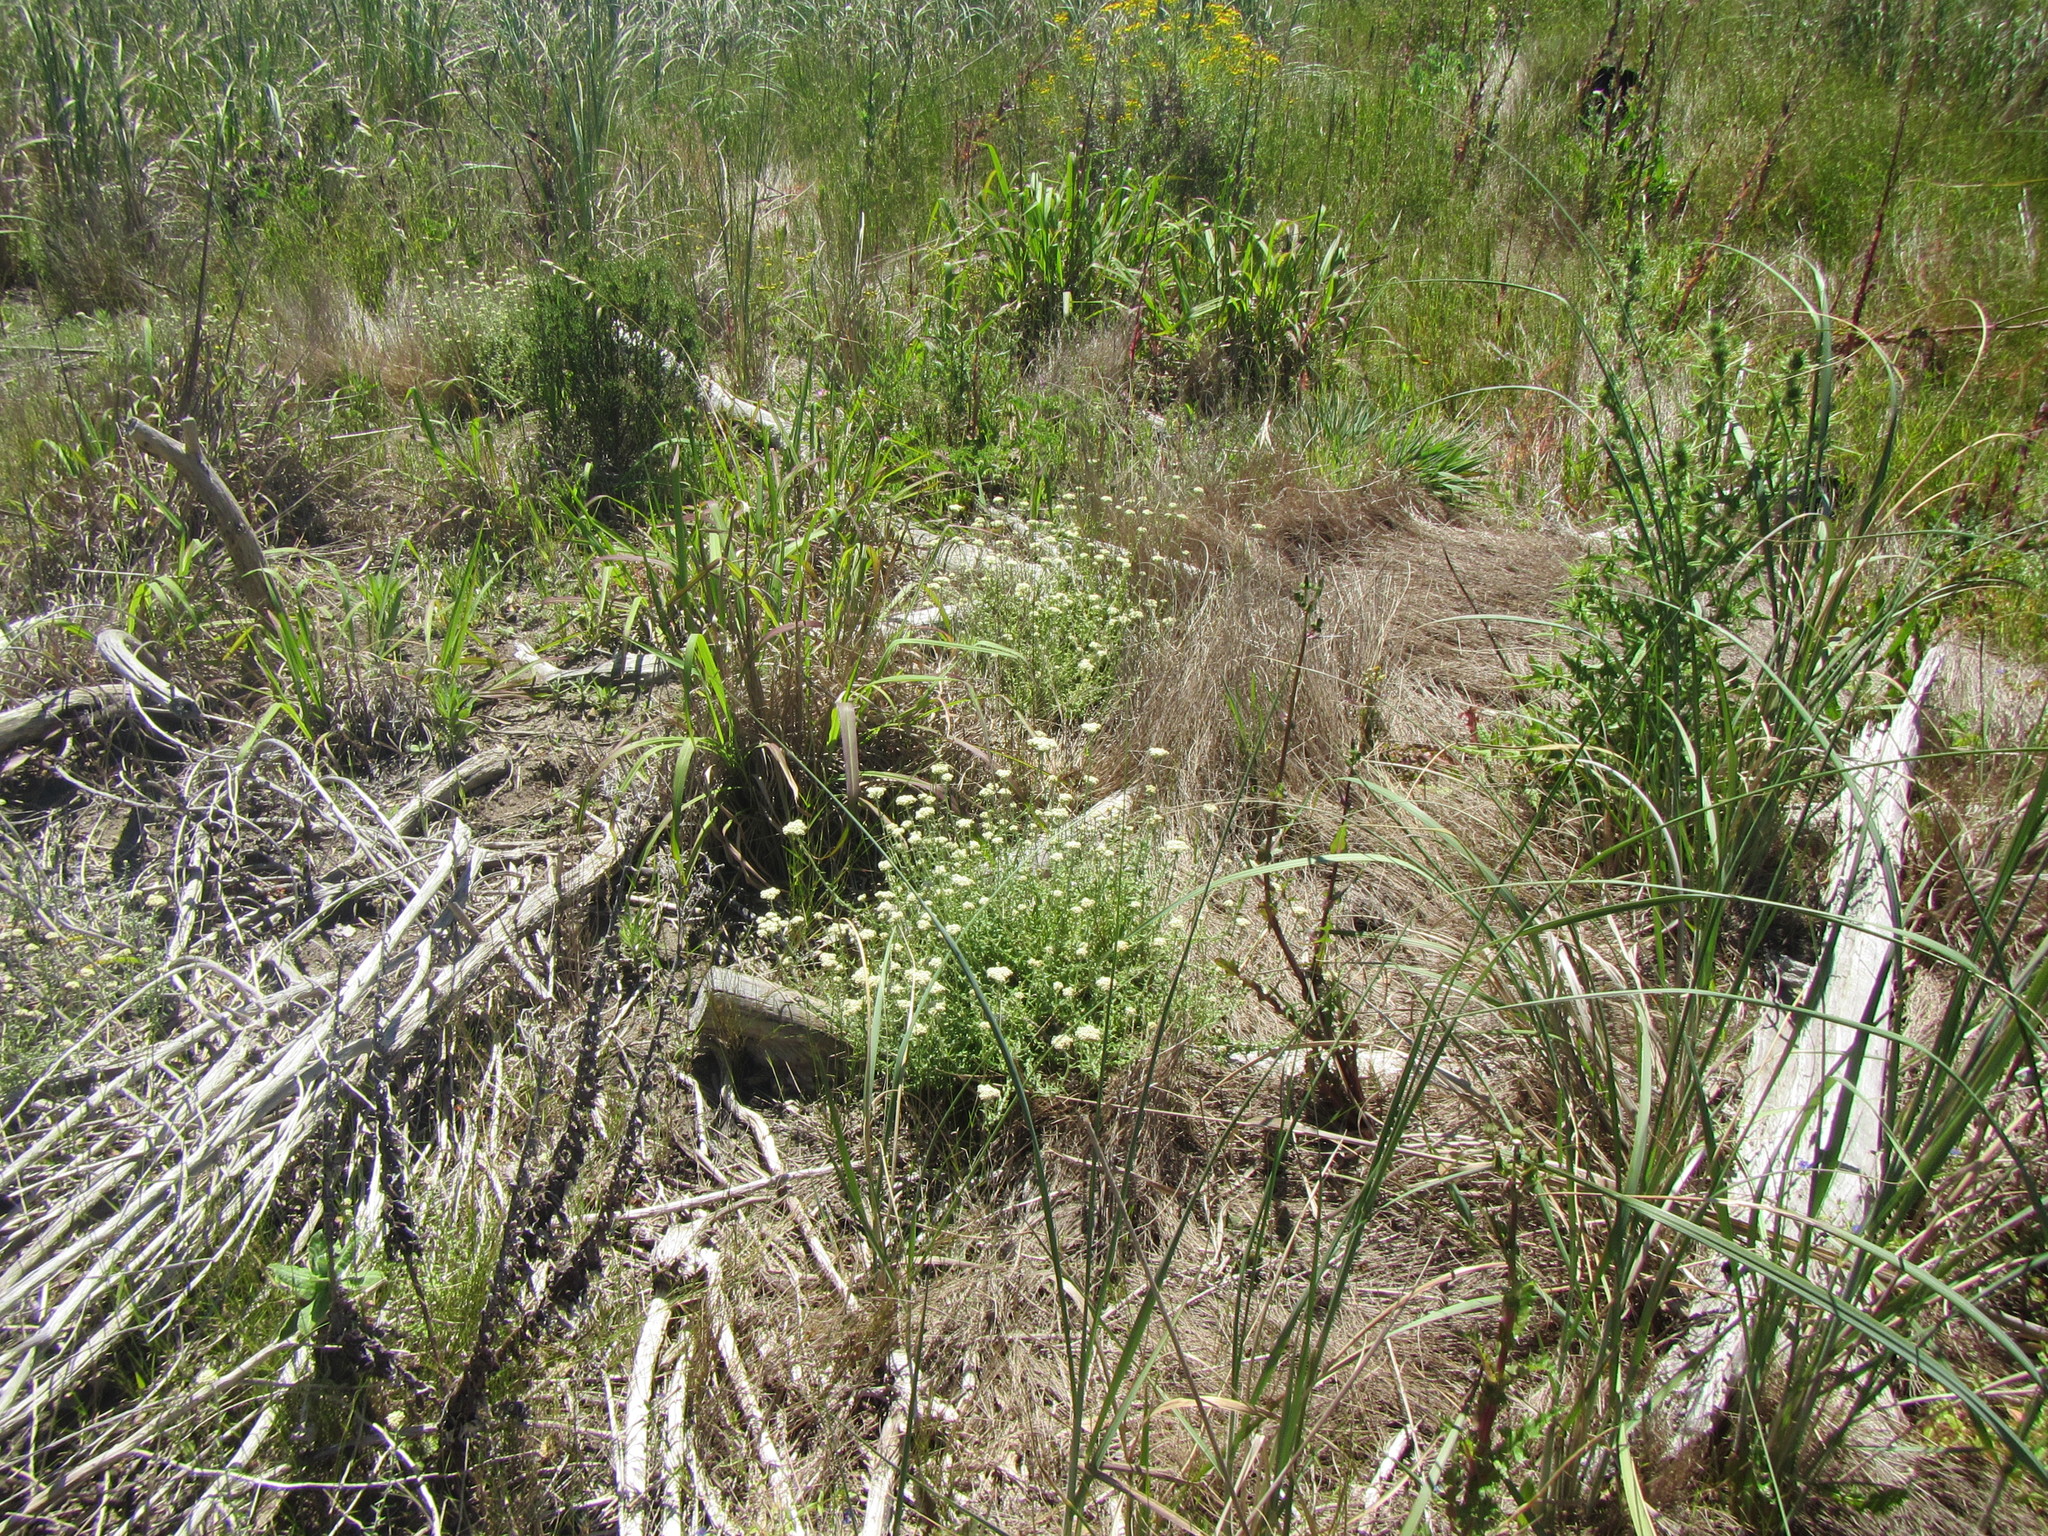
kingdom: Plantae
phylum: Tracheophyta
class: Magnoliopsida
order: Asterales
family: Asteraceae
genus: Helichrysum
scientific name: Helichrysum helianthemifolium
